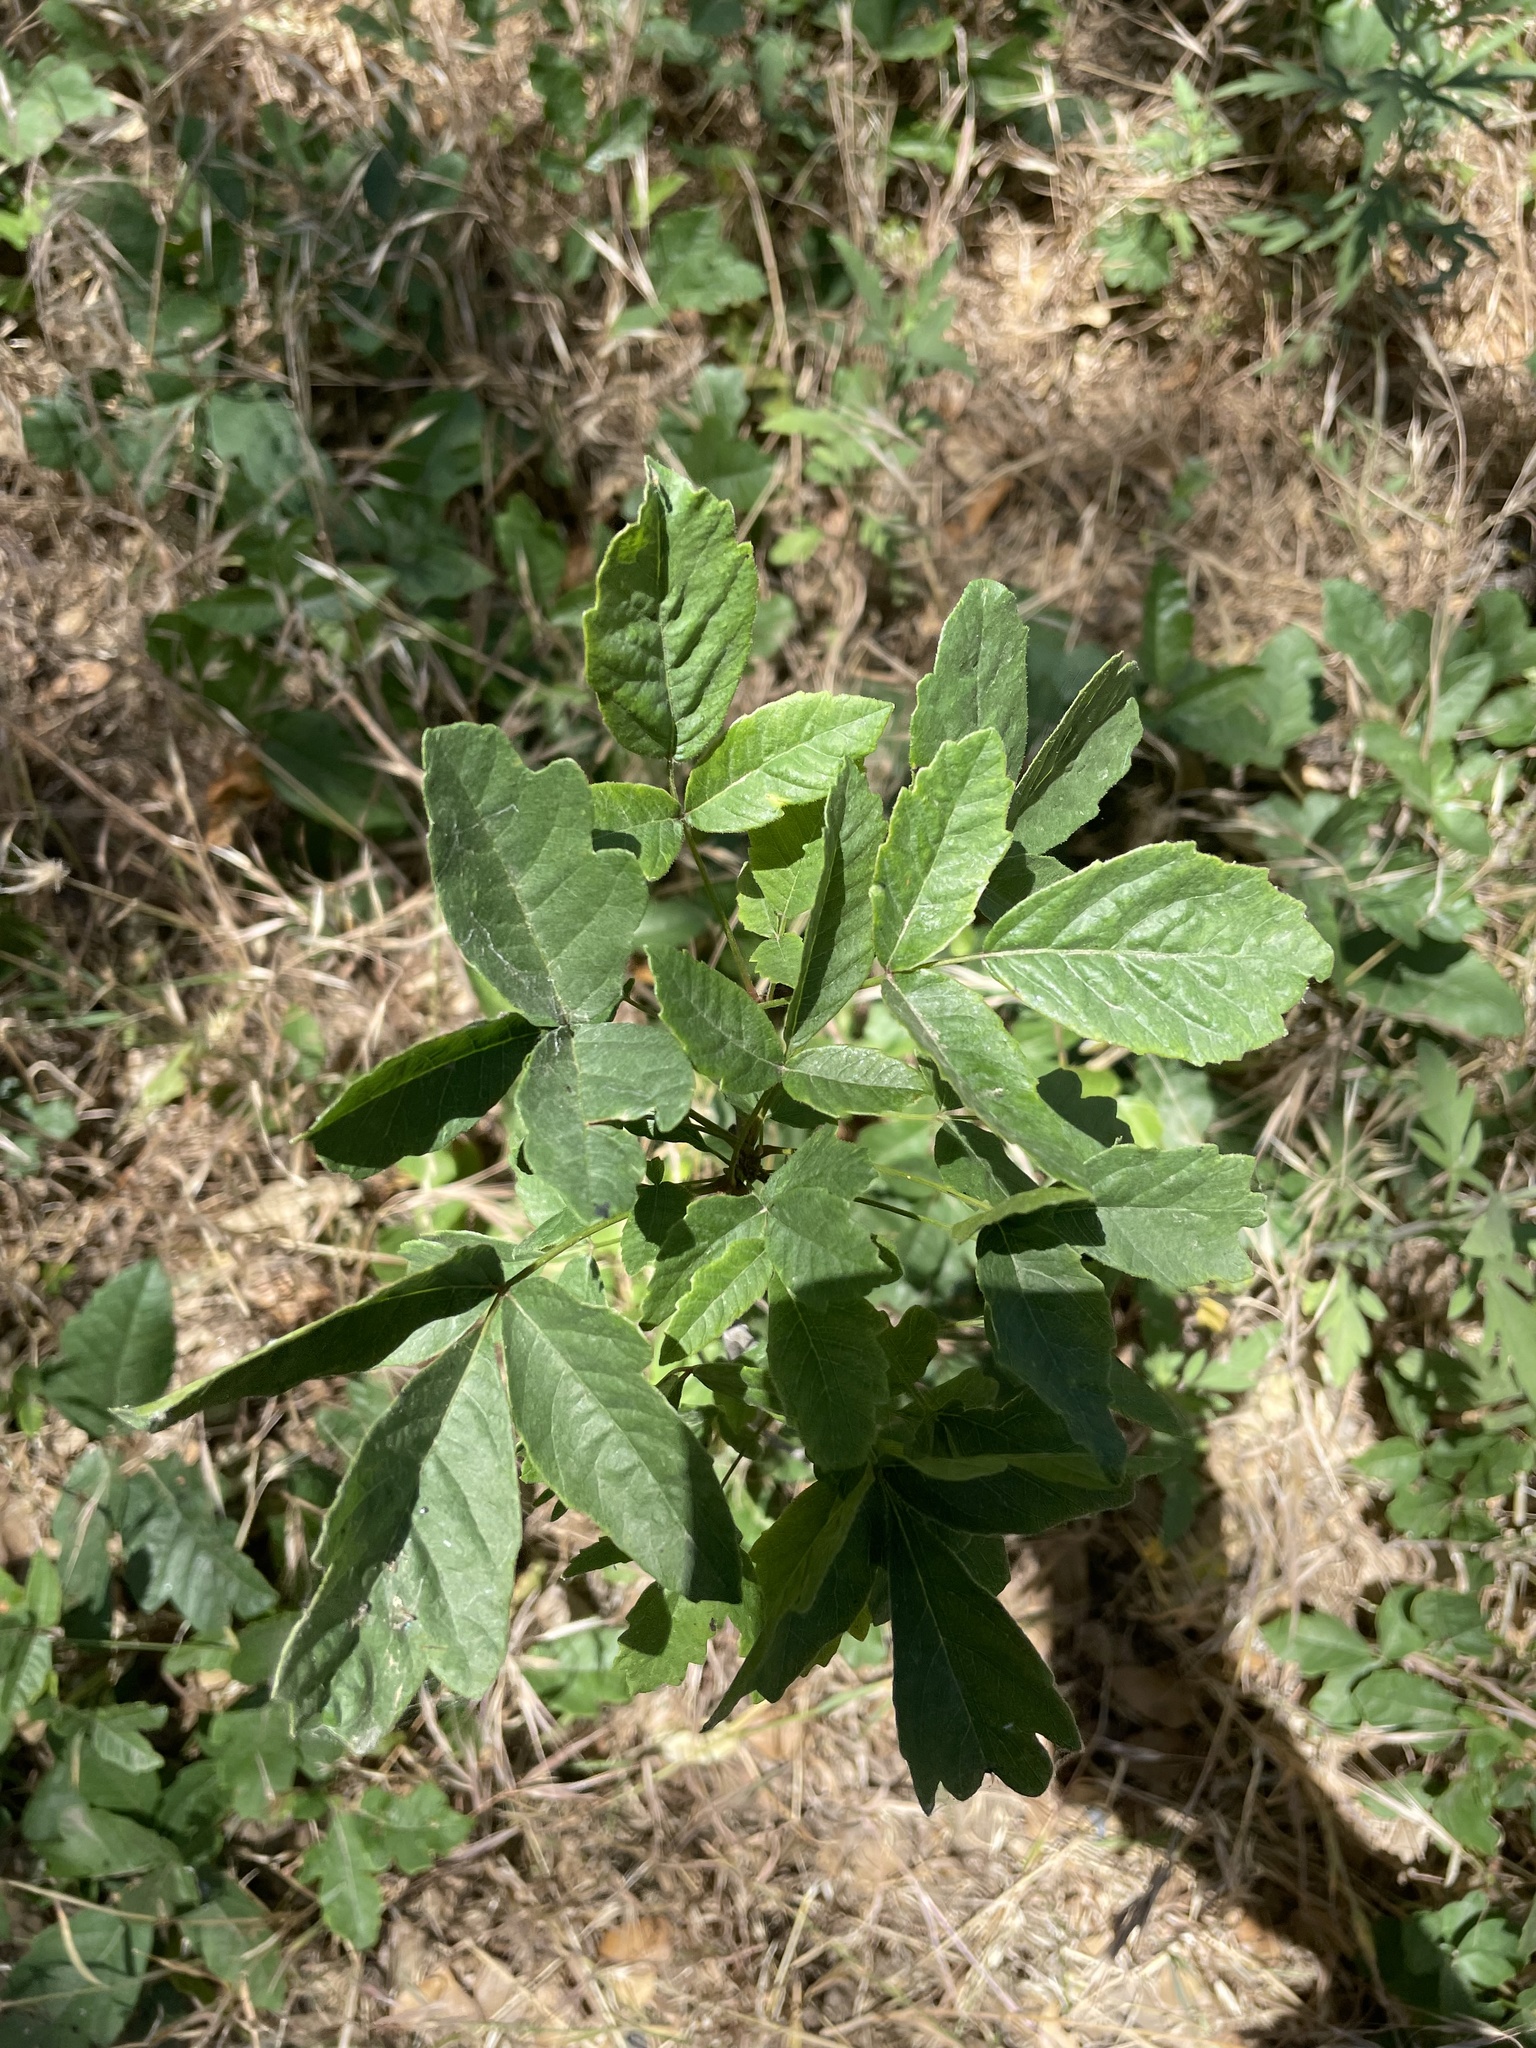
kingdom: Plantae
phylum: Tracheophyta
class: Magnoliopsida
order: Sapindales
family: Anacardiaceae
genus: Toxicodendron
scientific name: Toxicodendron diversilobum
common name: Pacific poison-oak
